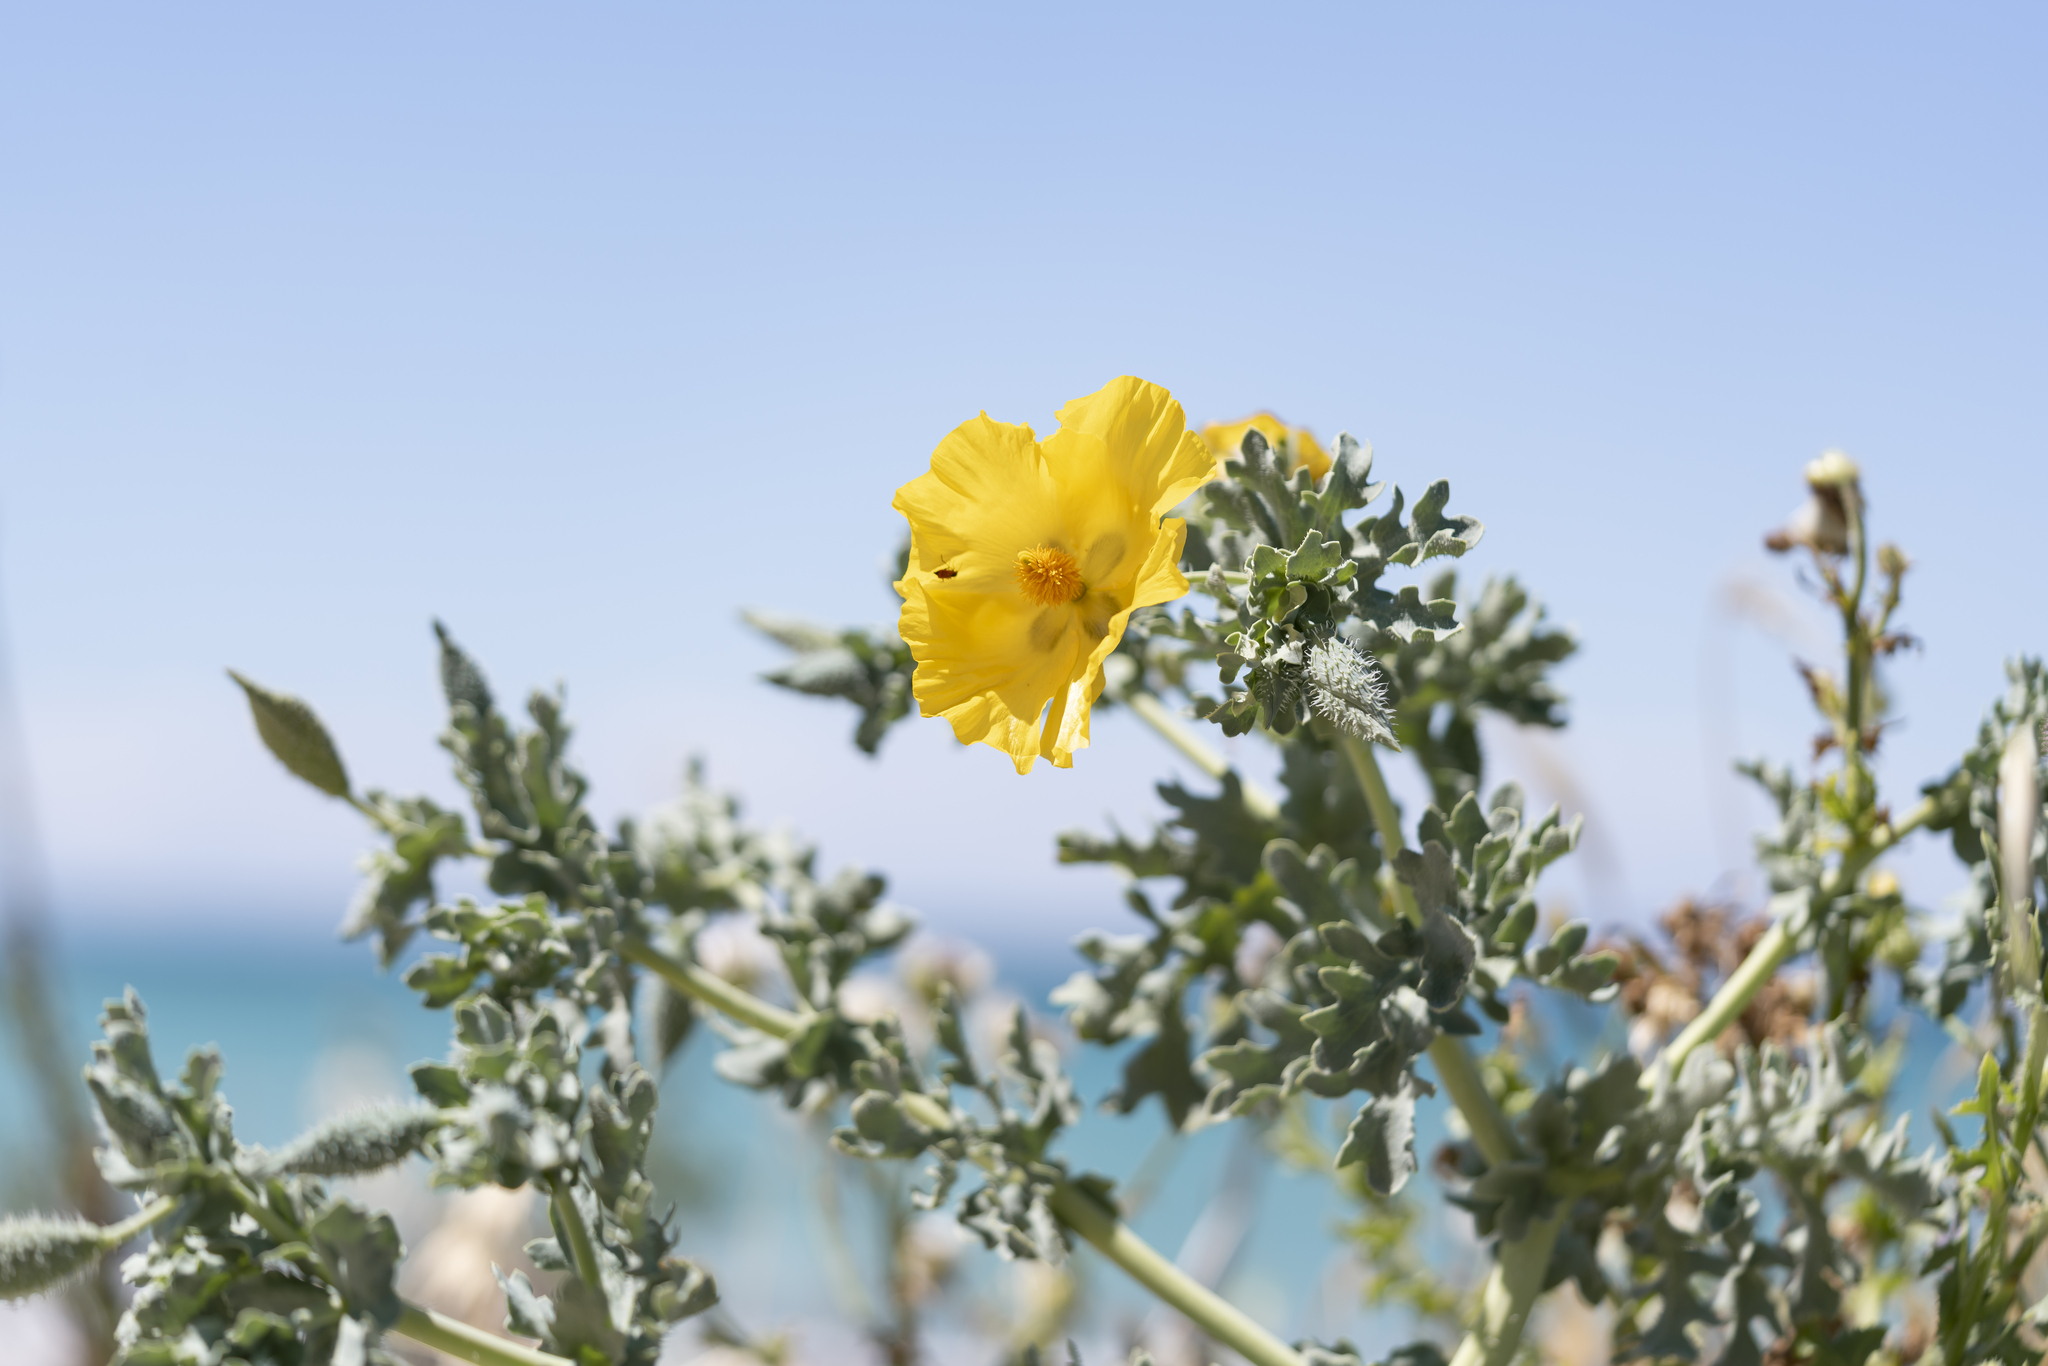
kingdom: Plantae
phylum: Tracheophyta
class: Magnoliopsida
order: Ranunculales
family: Papaveraceae
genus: Glaucium
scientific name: Glaucium flavum
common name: Yellow horned-poppy
